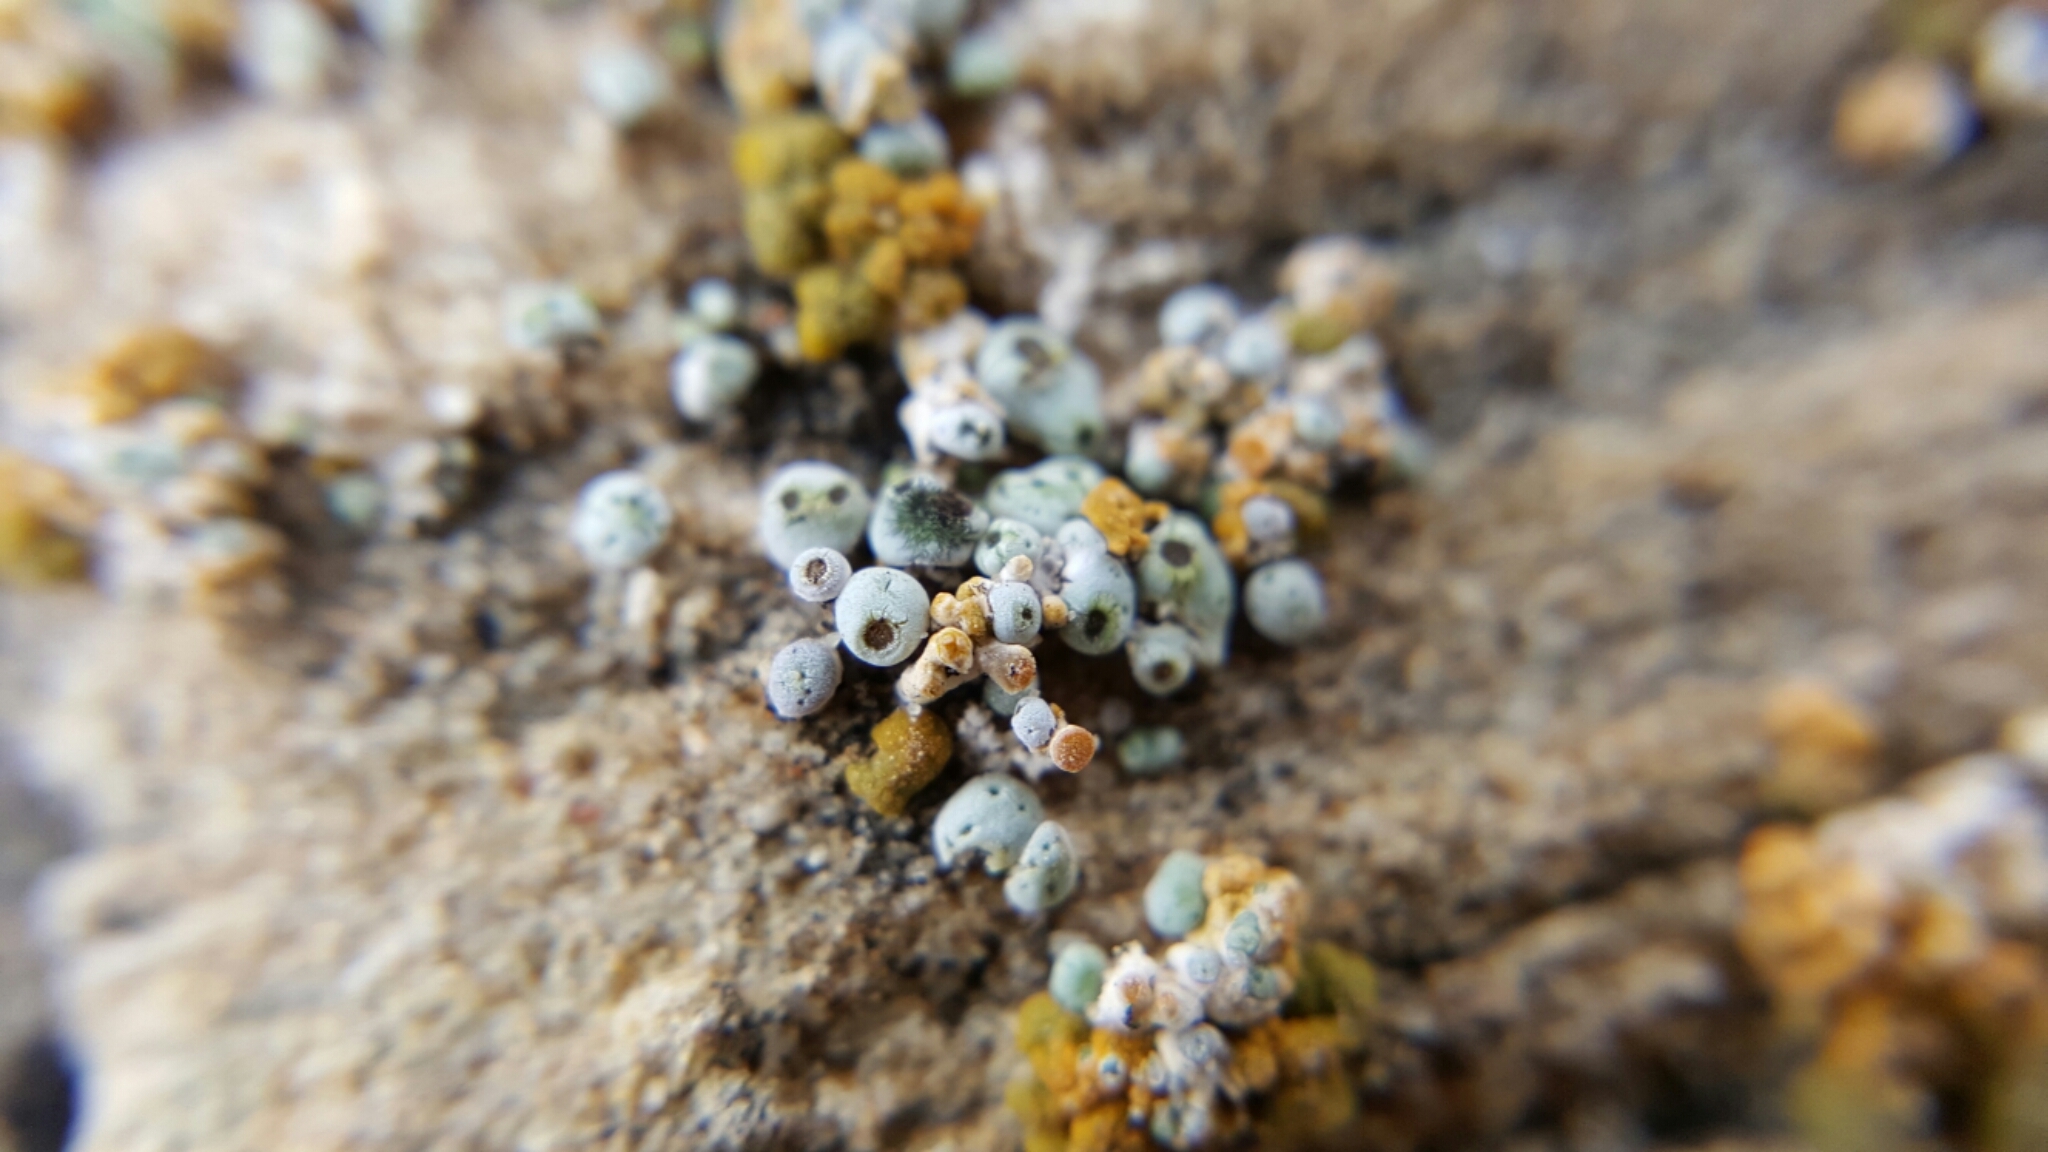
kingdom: Fungi
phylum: Ascomycota
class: Lecanoromycetes
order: Acarosporales
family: Acarosporaceae
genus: Acarospora
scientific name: Acarospora stapfiana
